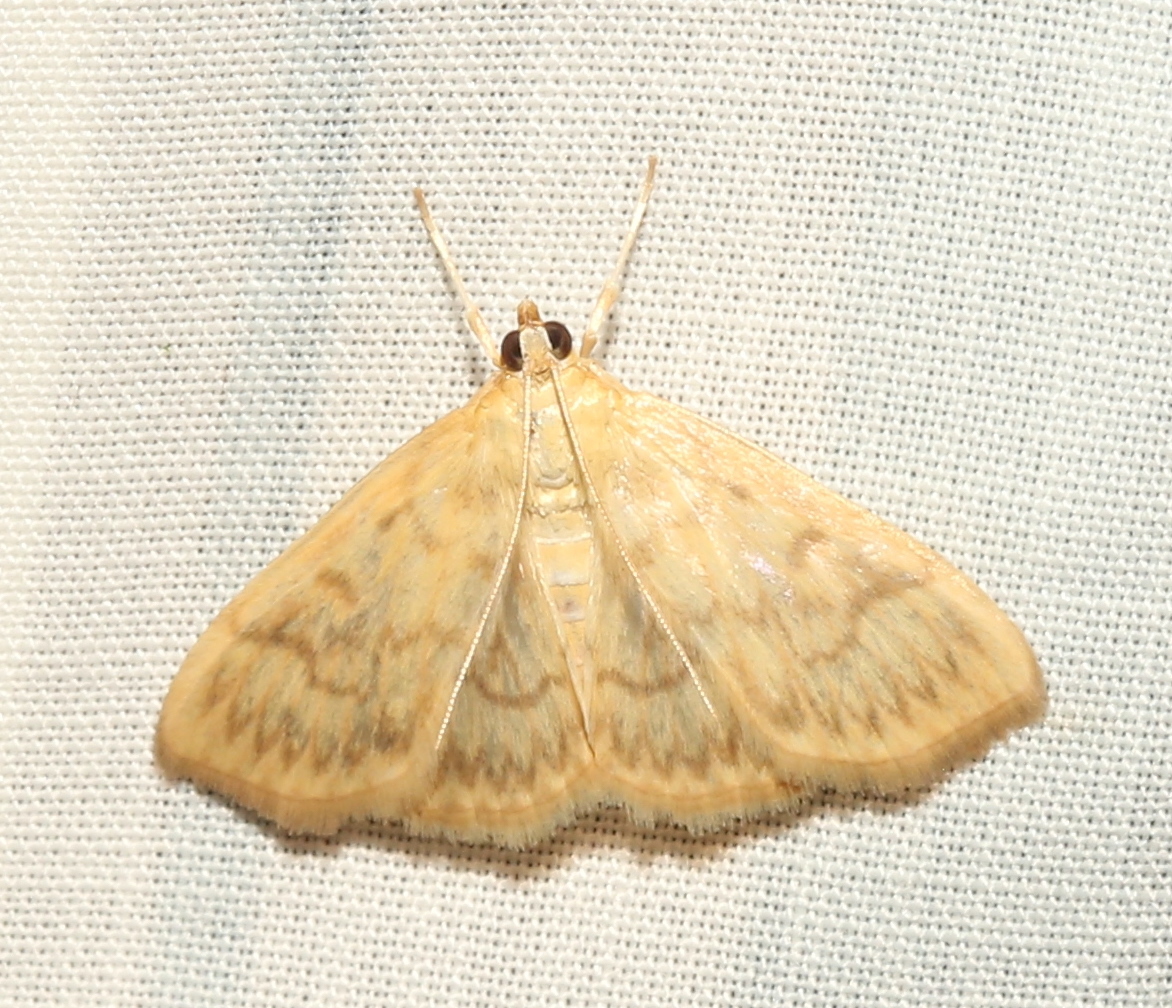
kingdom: Animalia
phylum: Arthropoda
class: Insecta
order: Lepidoptera
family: Crambidae
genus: Crocidophora
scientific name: Crocidophora serratissimalis
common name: Saw-toothed crocidophora moth
